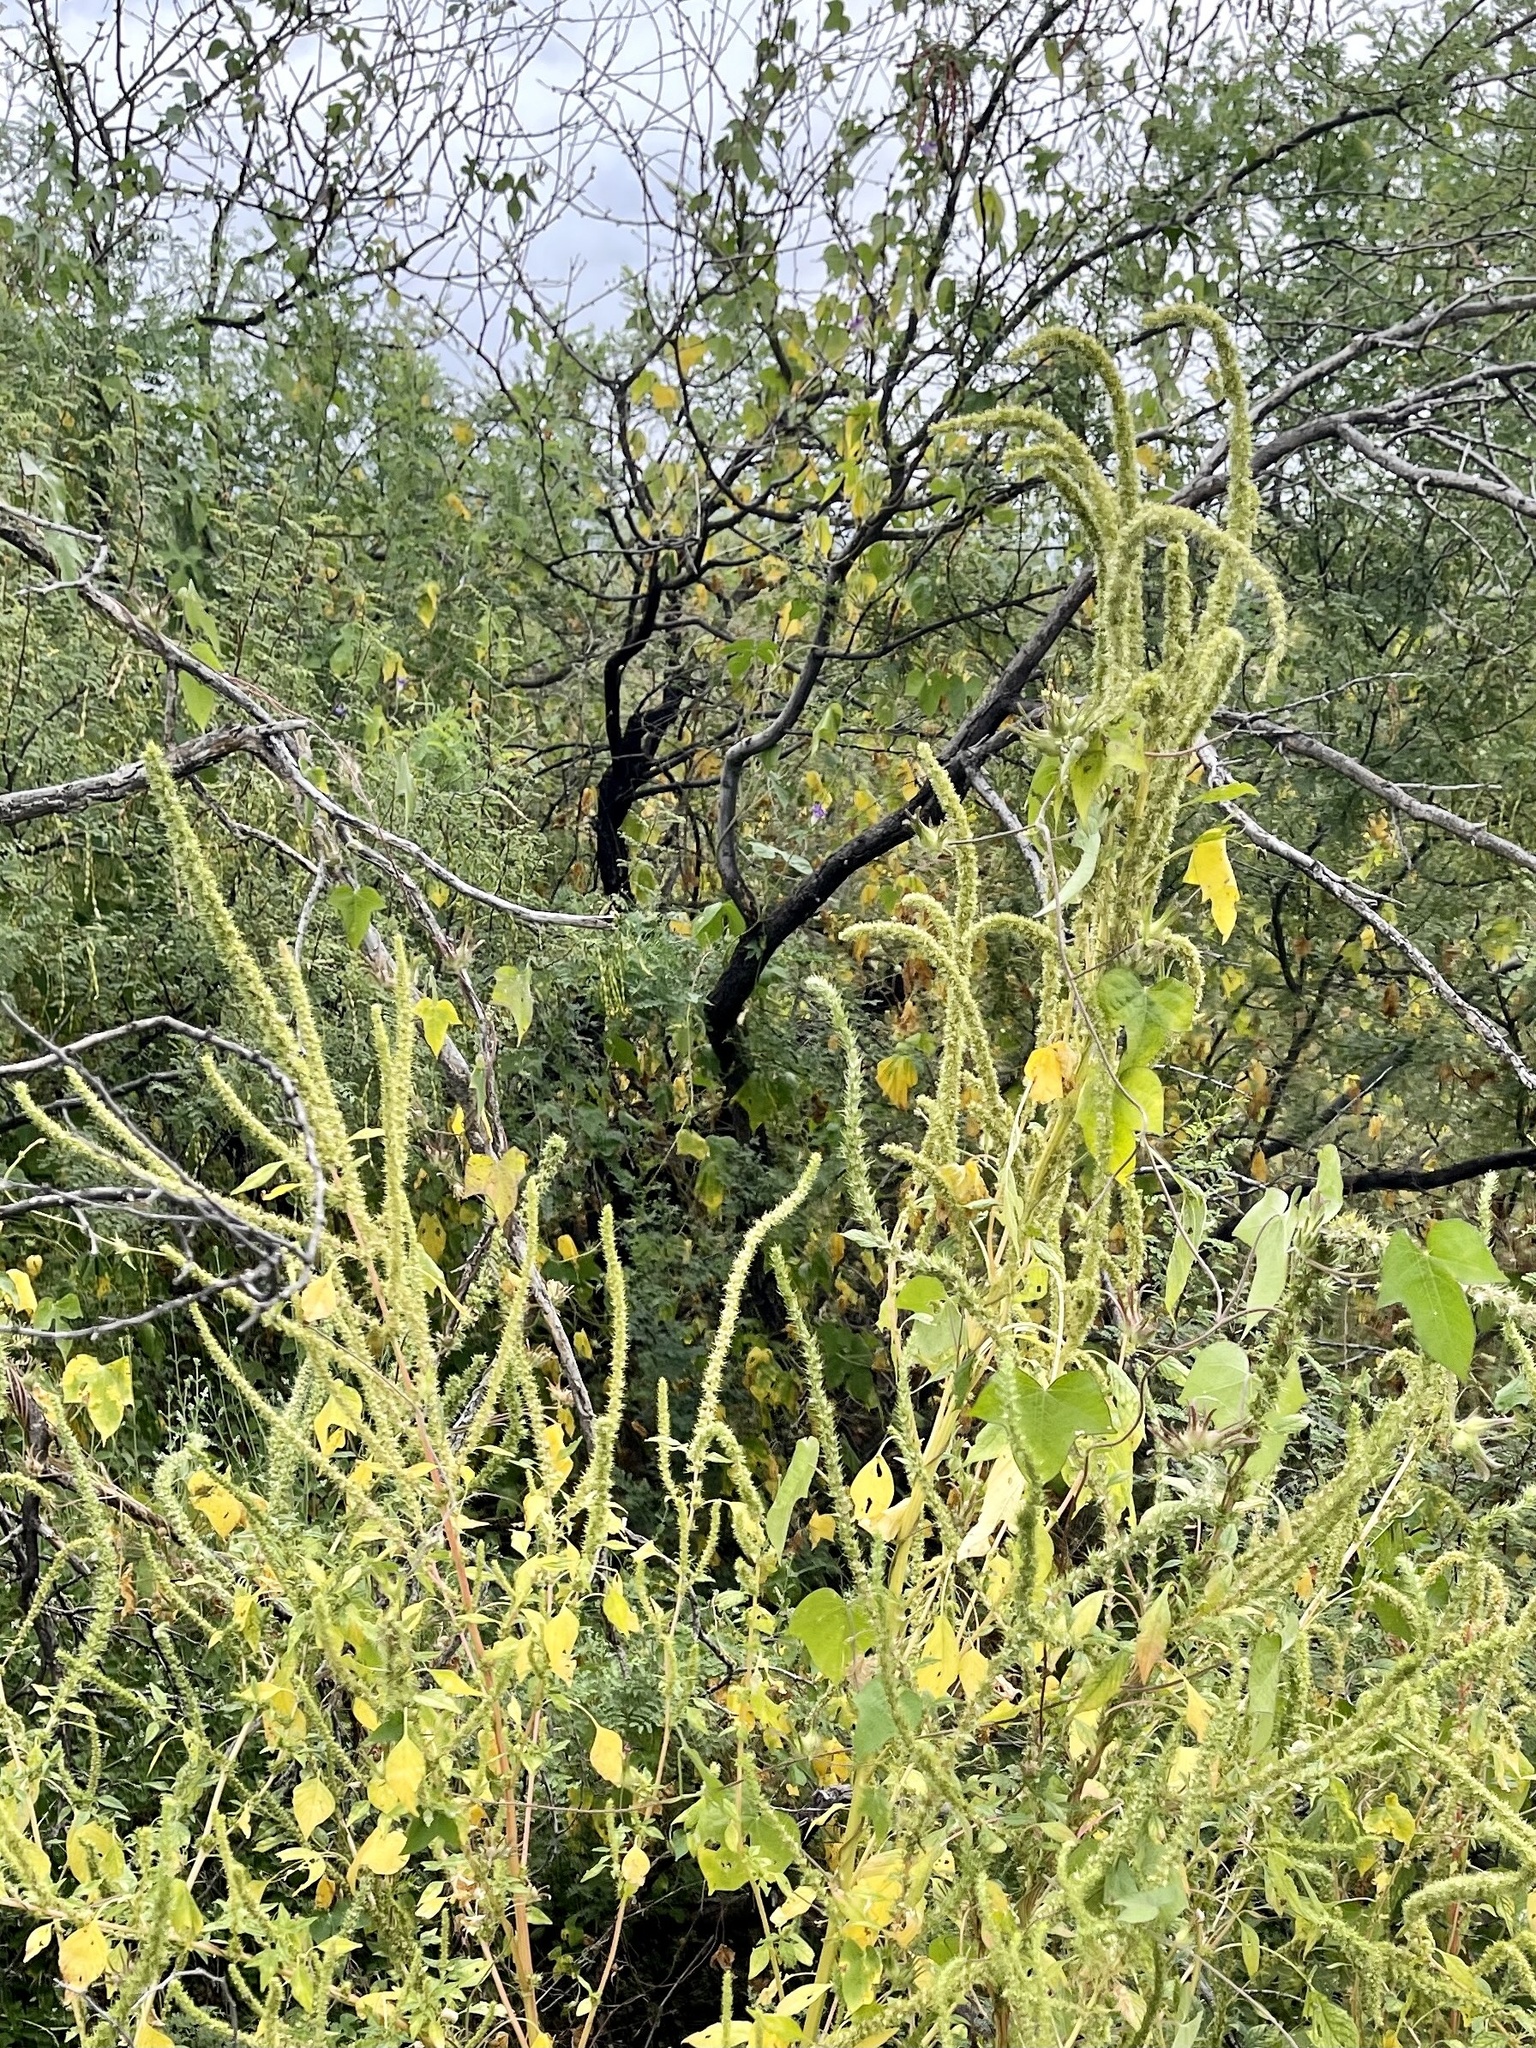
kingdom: Plantae
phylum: Tracheophyta
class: Magnoliopsida
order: Caryophyllales
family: Amaranthaceae
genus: Amaranthus
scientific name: Amaranthus palmeri
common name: Dioecious amaranth
